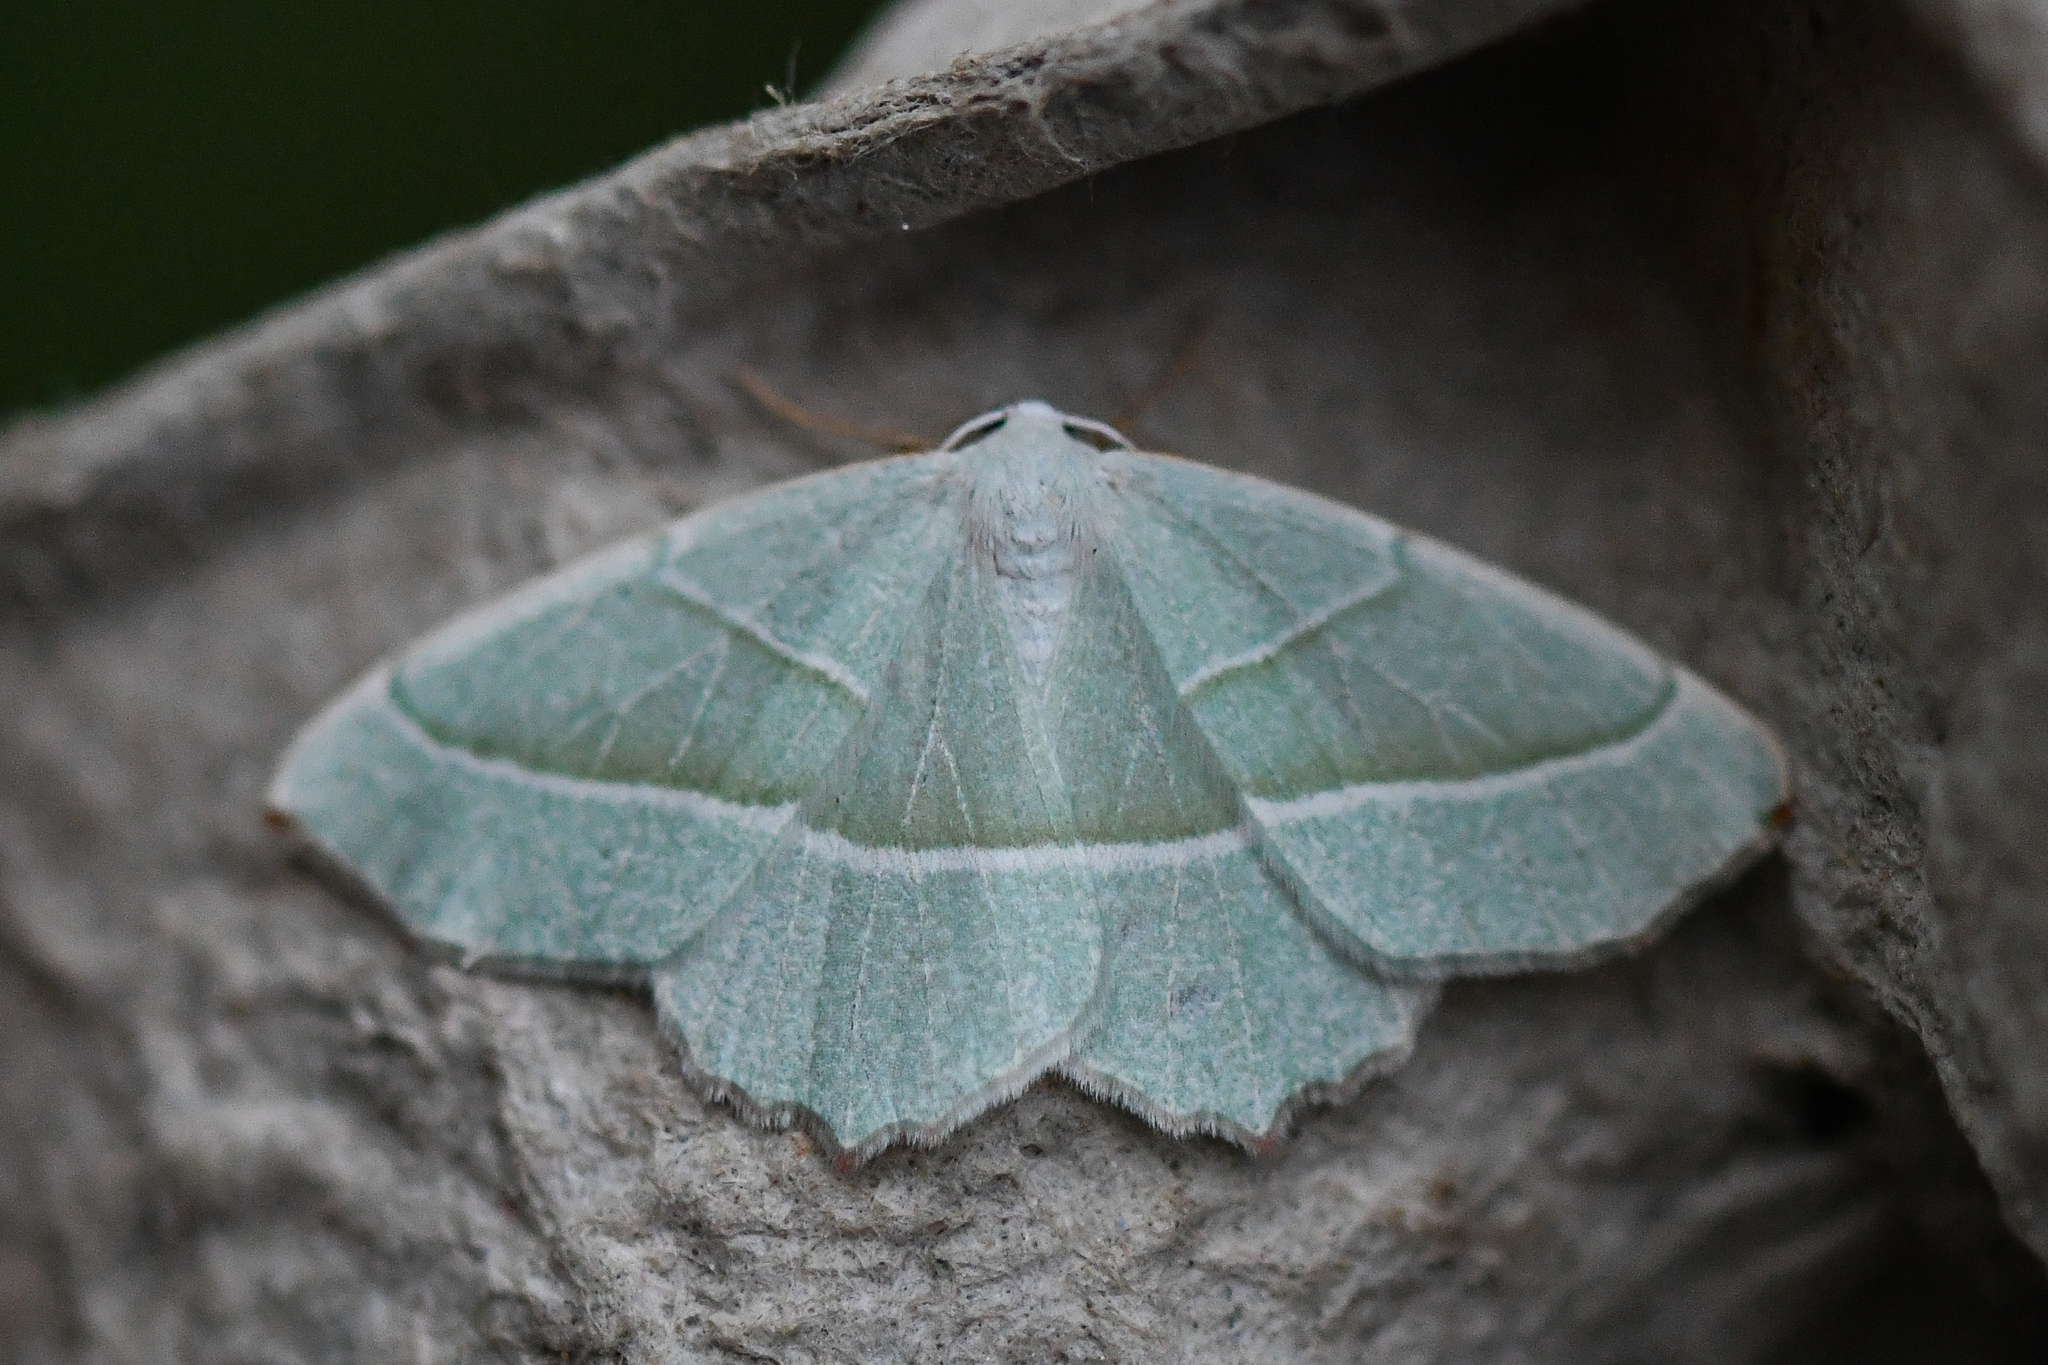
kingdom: Animalia
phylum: Arthropoda
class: Insecta
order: Lepidoptera
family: Geometridae
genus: Campaea
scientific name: Campaea margaritaria
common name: Light emerald
